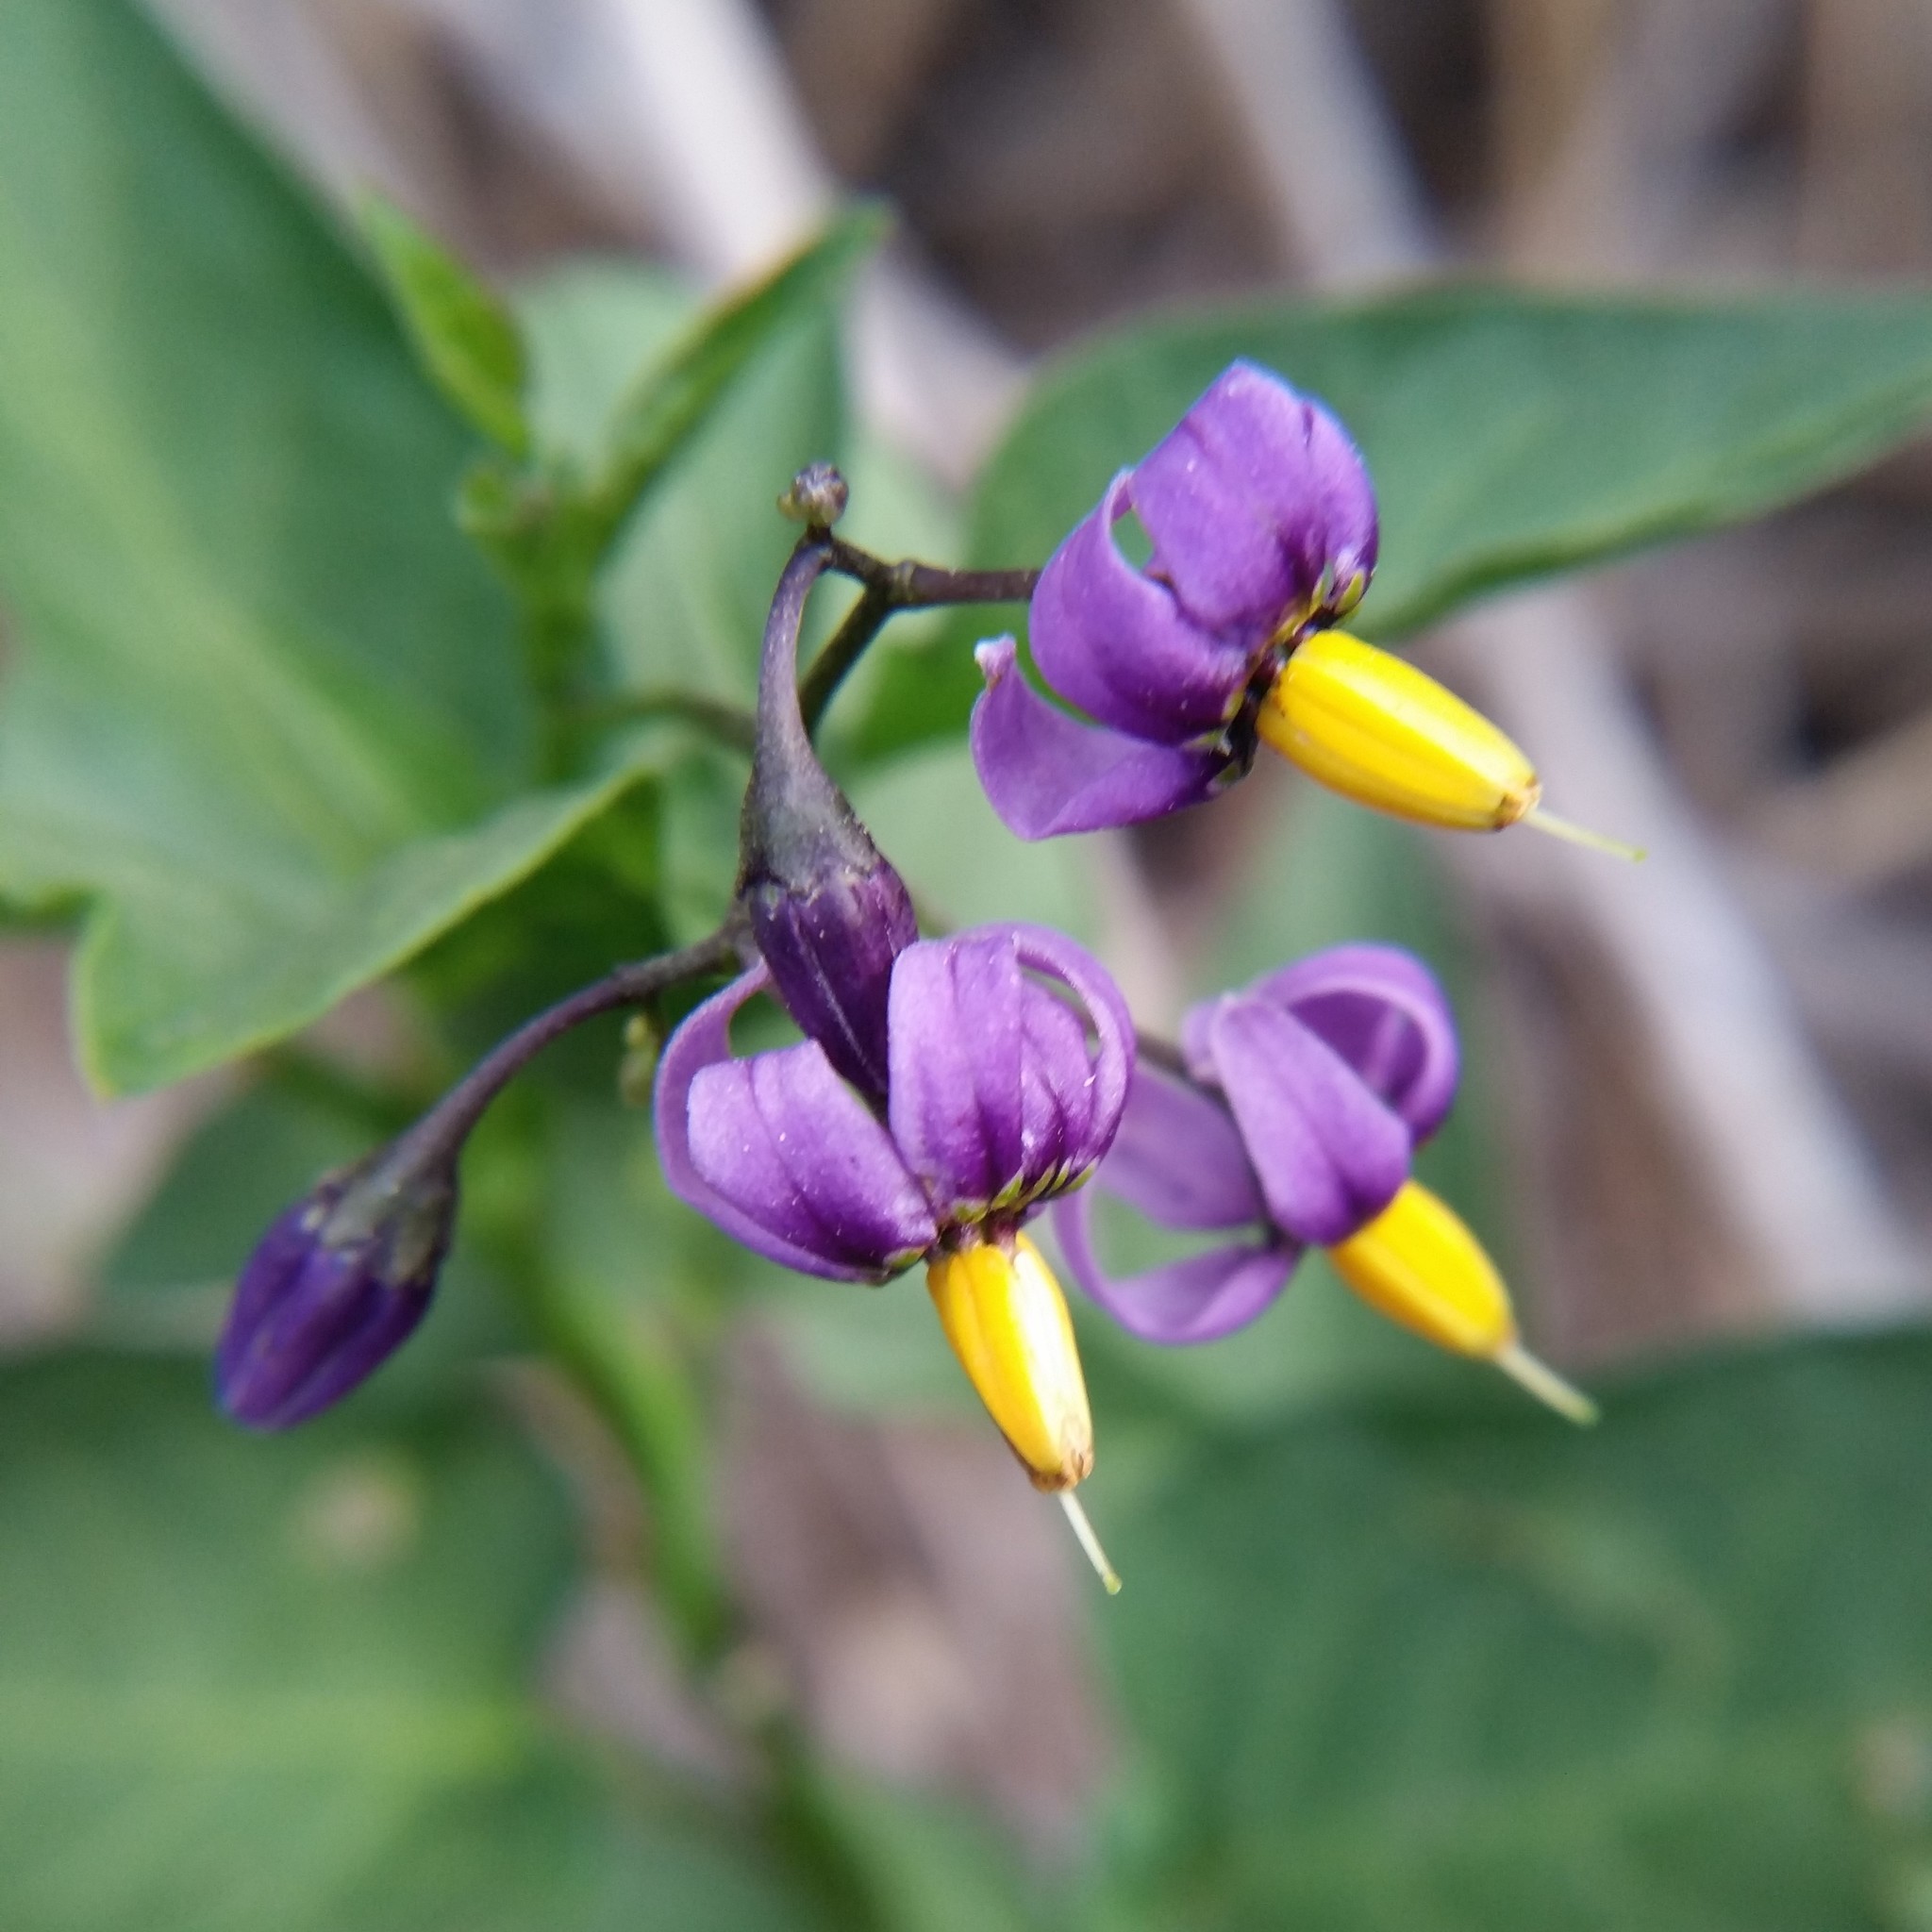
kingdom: Plantae
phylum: Tracheophyta
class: Magnoliopsida
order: Solanales
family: Solanaceae
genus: Solanum
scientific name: Solanum dulcamara
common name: Climbing nightshade
